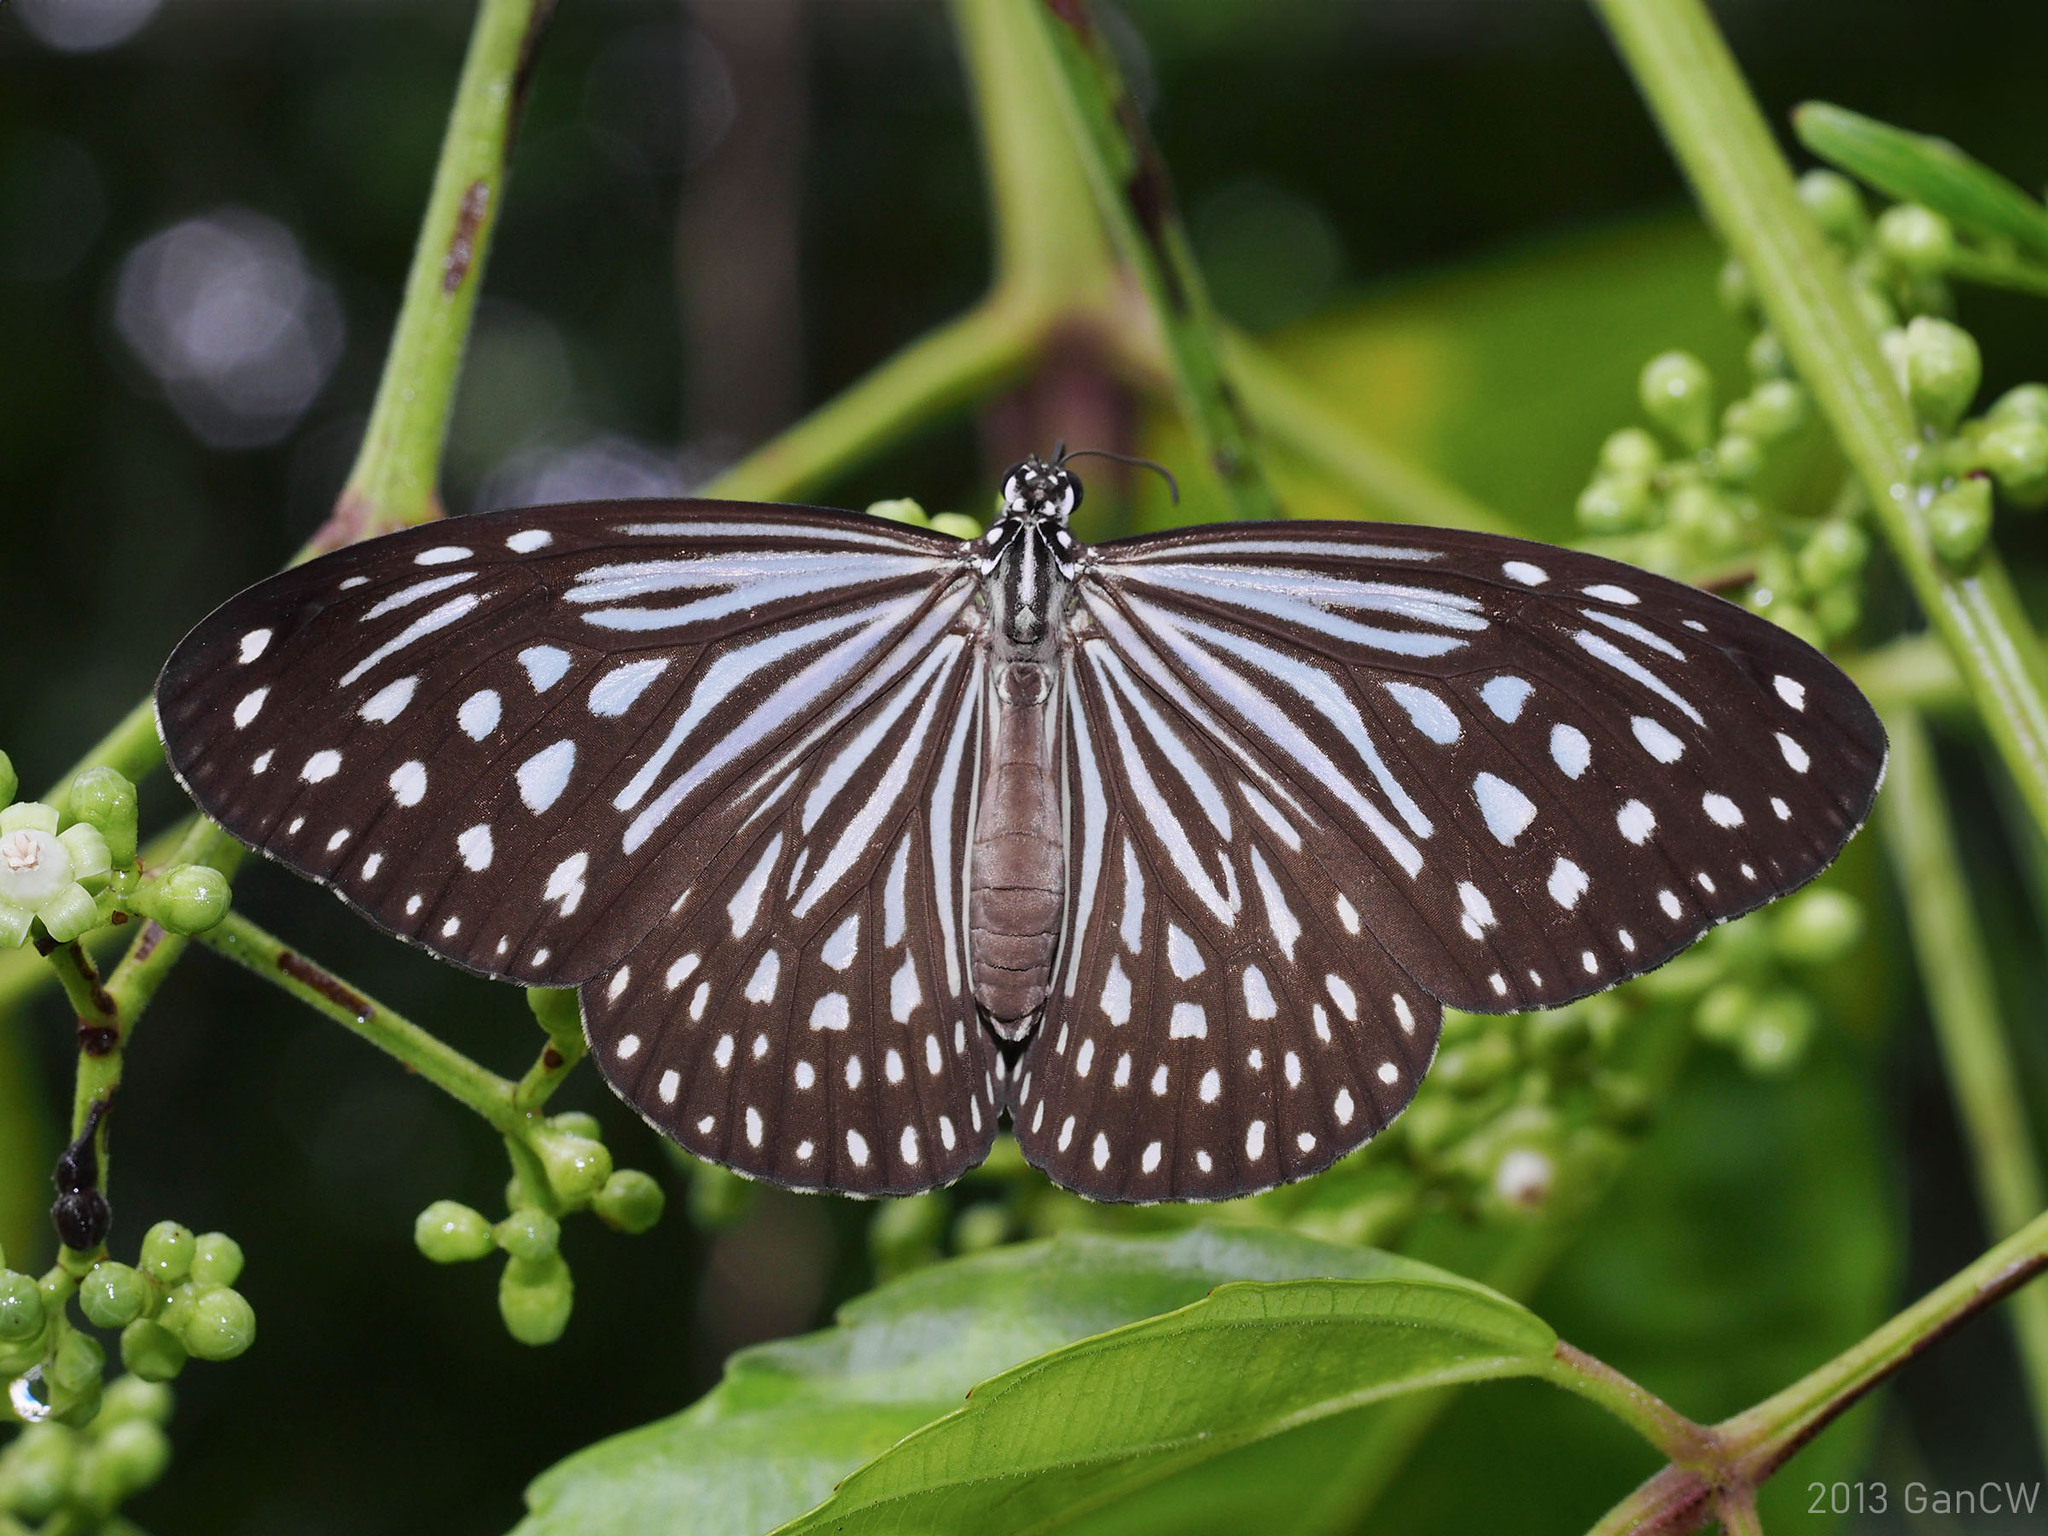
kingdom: Animalia
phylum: Arthropoda
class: Insecta
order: Lepidoptera
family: Nymphalidae
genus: Parantica
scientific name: Parantica agleoides
